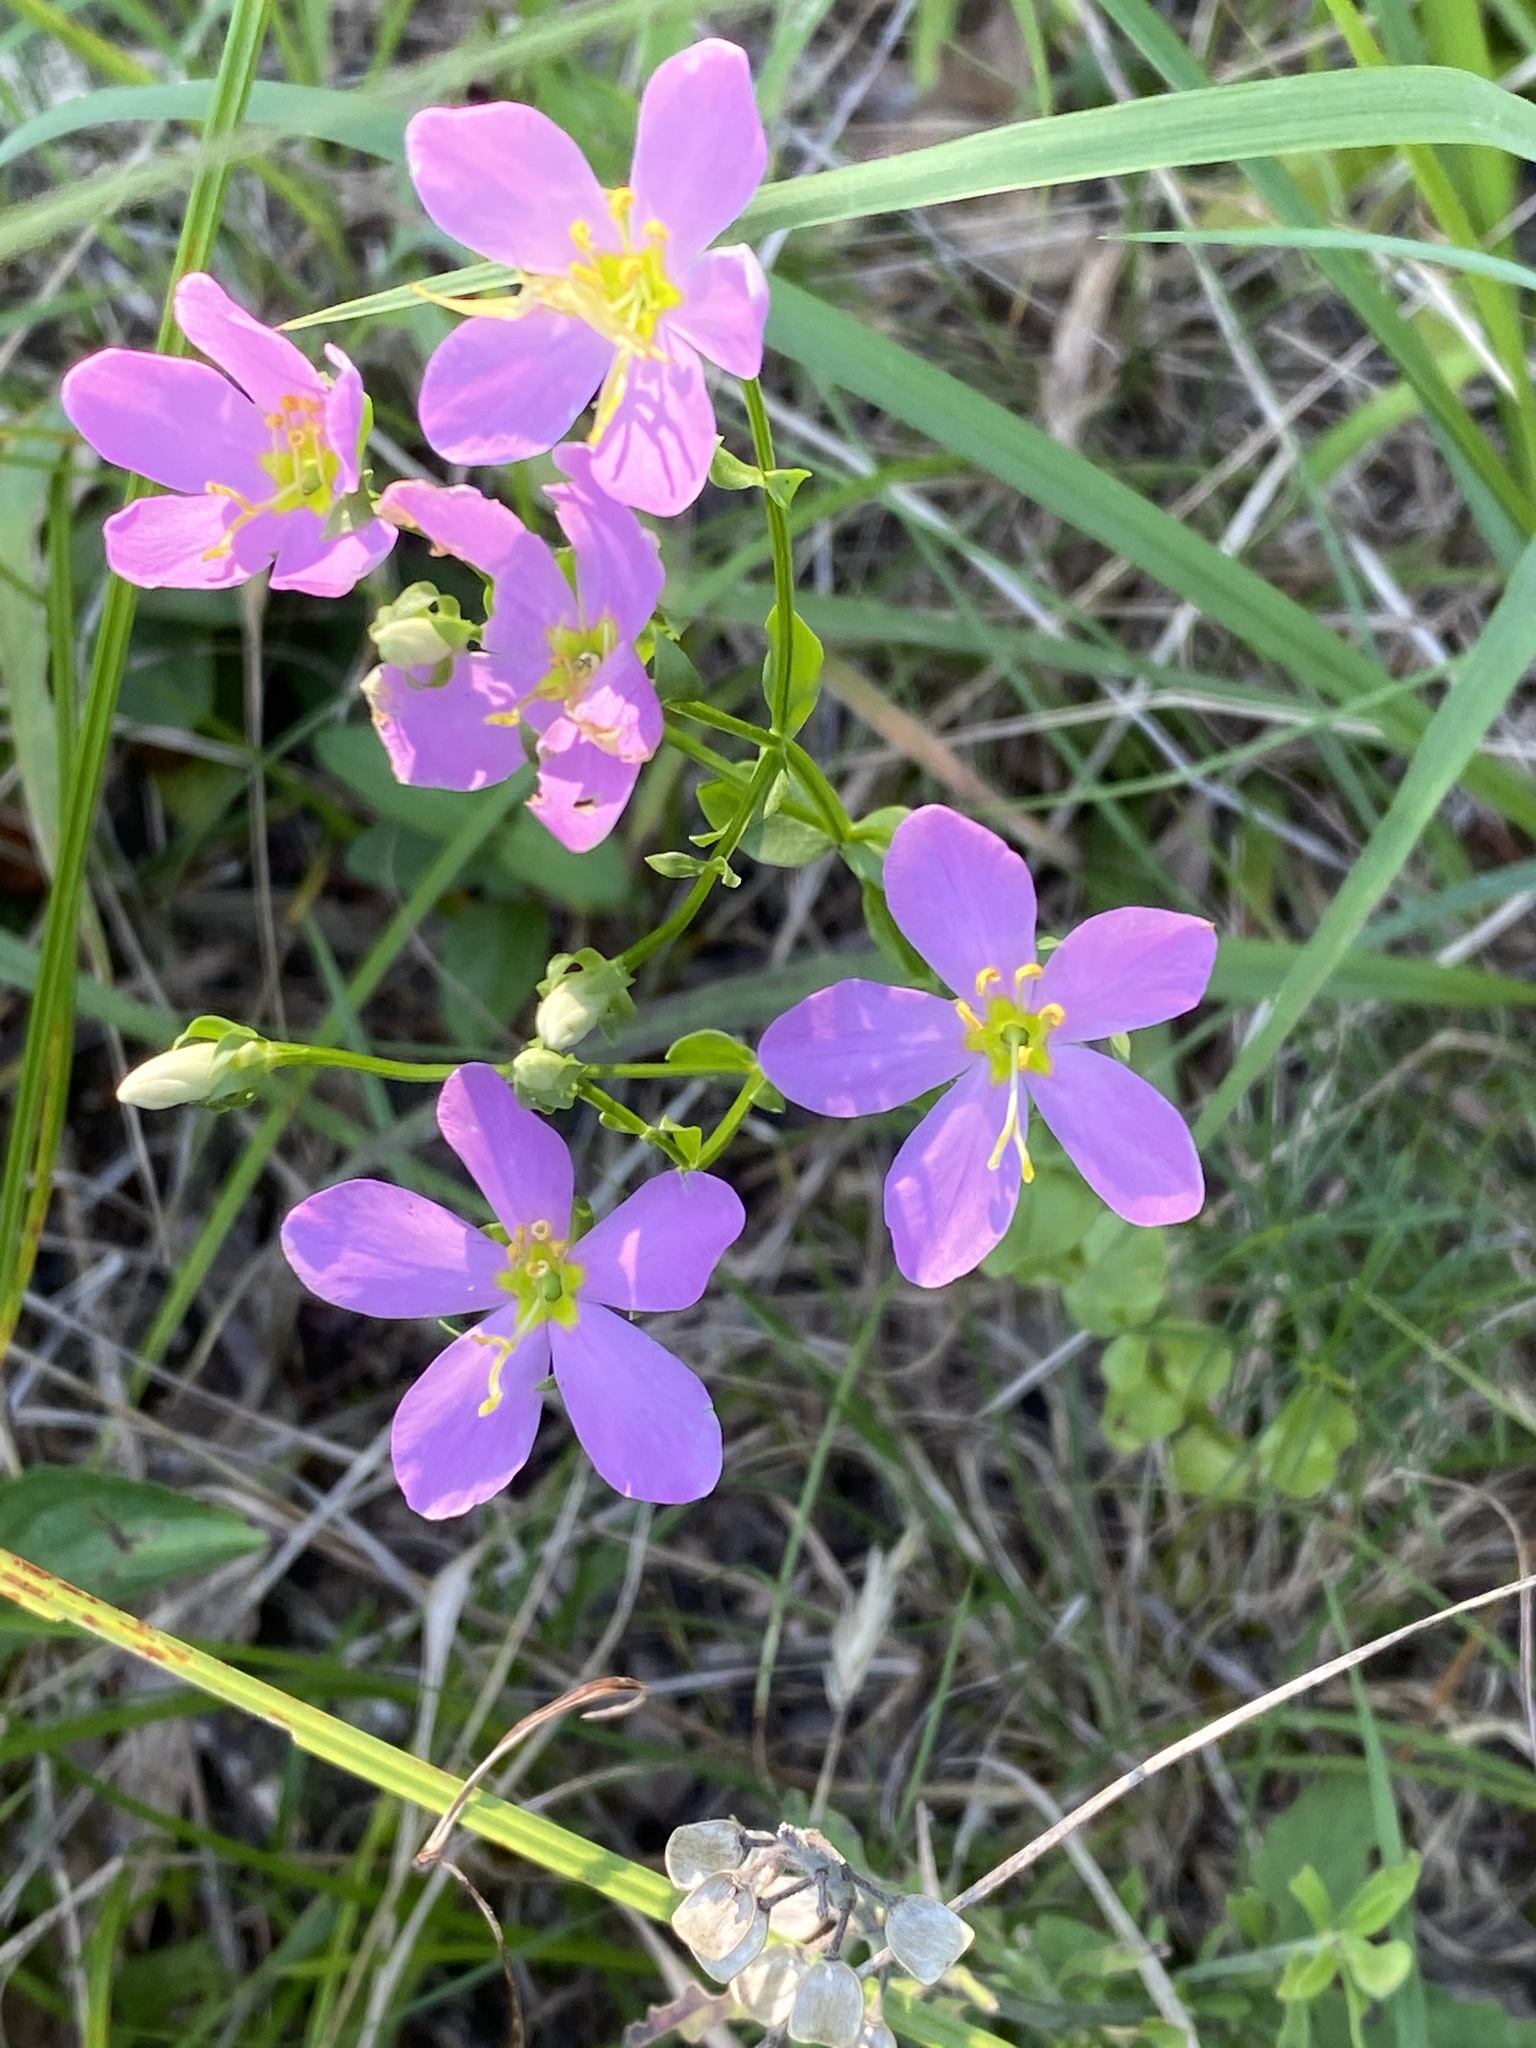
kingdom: Plantae
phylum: Tracheophyta
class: Magnoliopsida
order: Gentianales
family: Gentianaceae
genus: Sabatia
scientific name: Sabatia angularis
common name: Rose-pink
